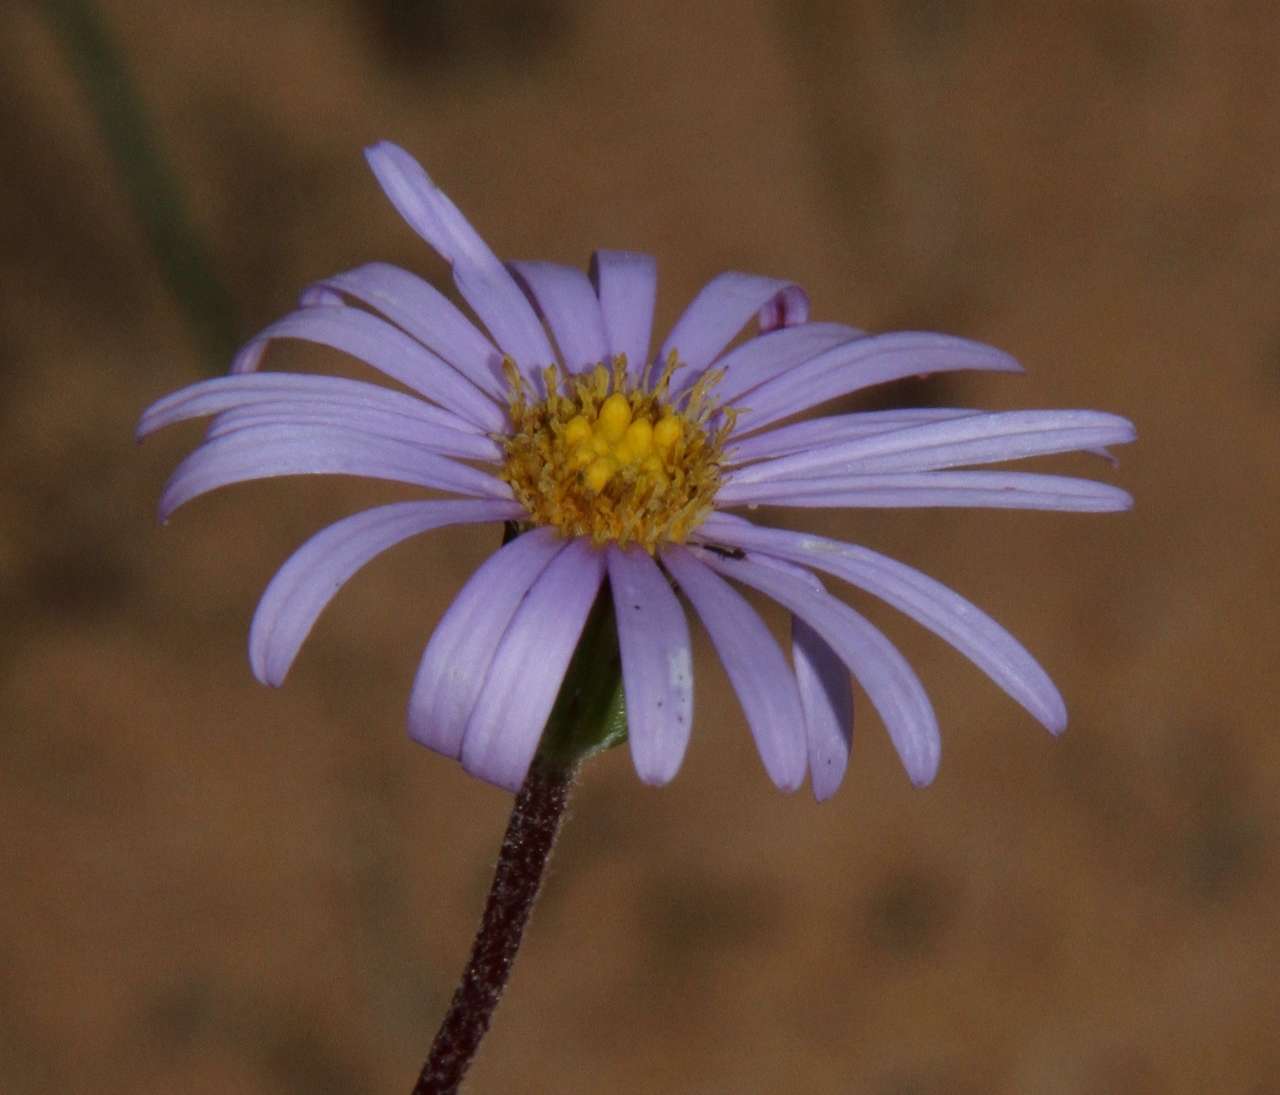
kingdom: Plantae
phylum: Tracheophyta
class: Magnoliopsida
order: Asterales
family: Asteraceae
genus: Olearia
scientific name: Olearia ciliata
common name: Fringed daisybush
